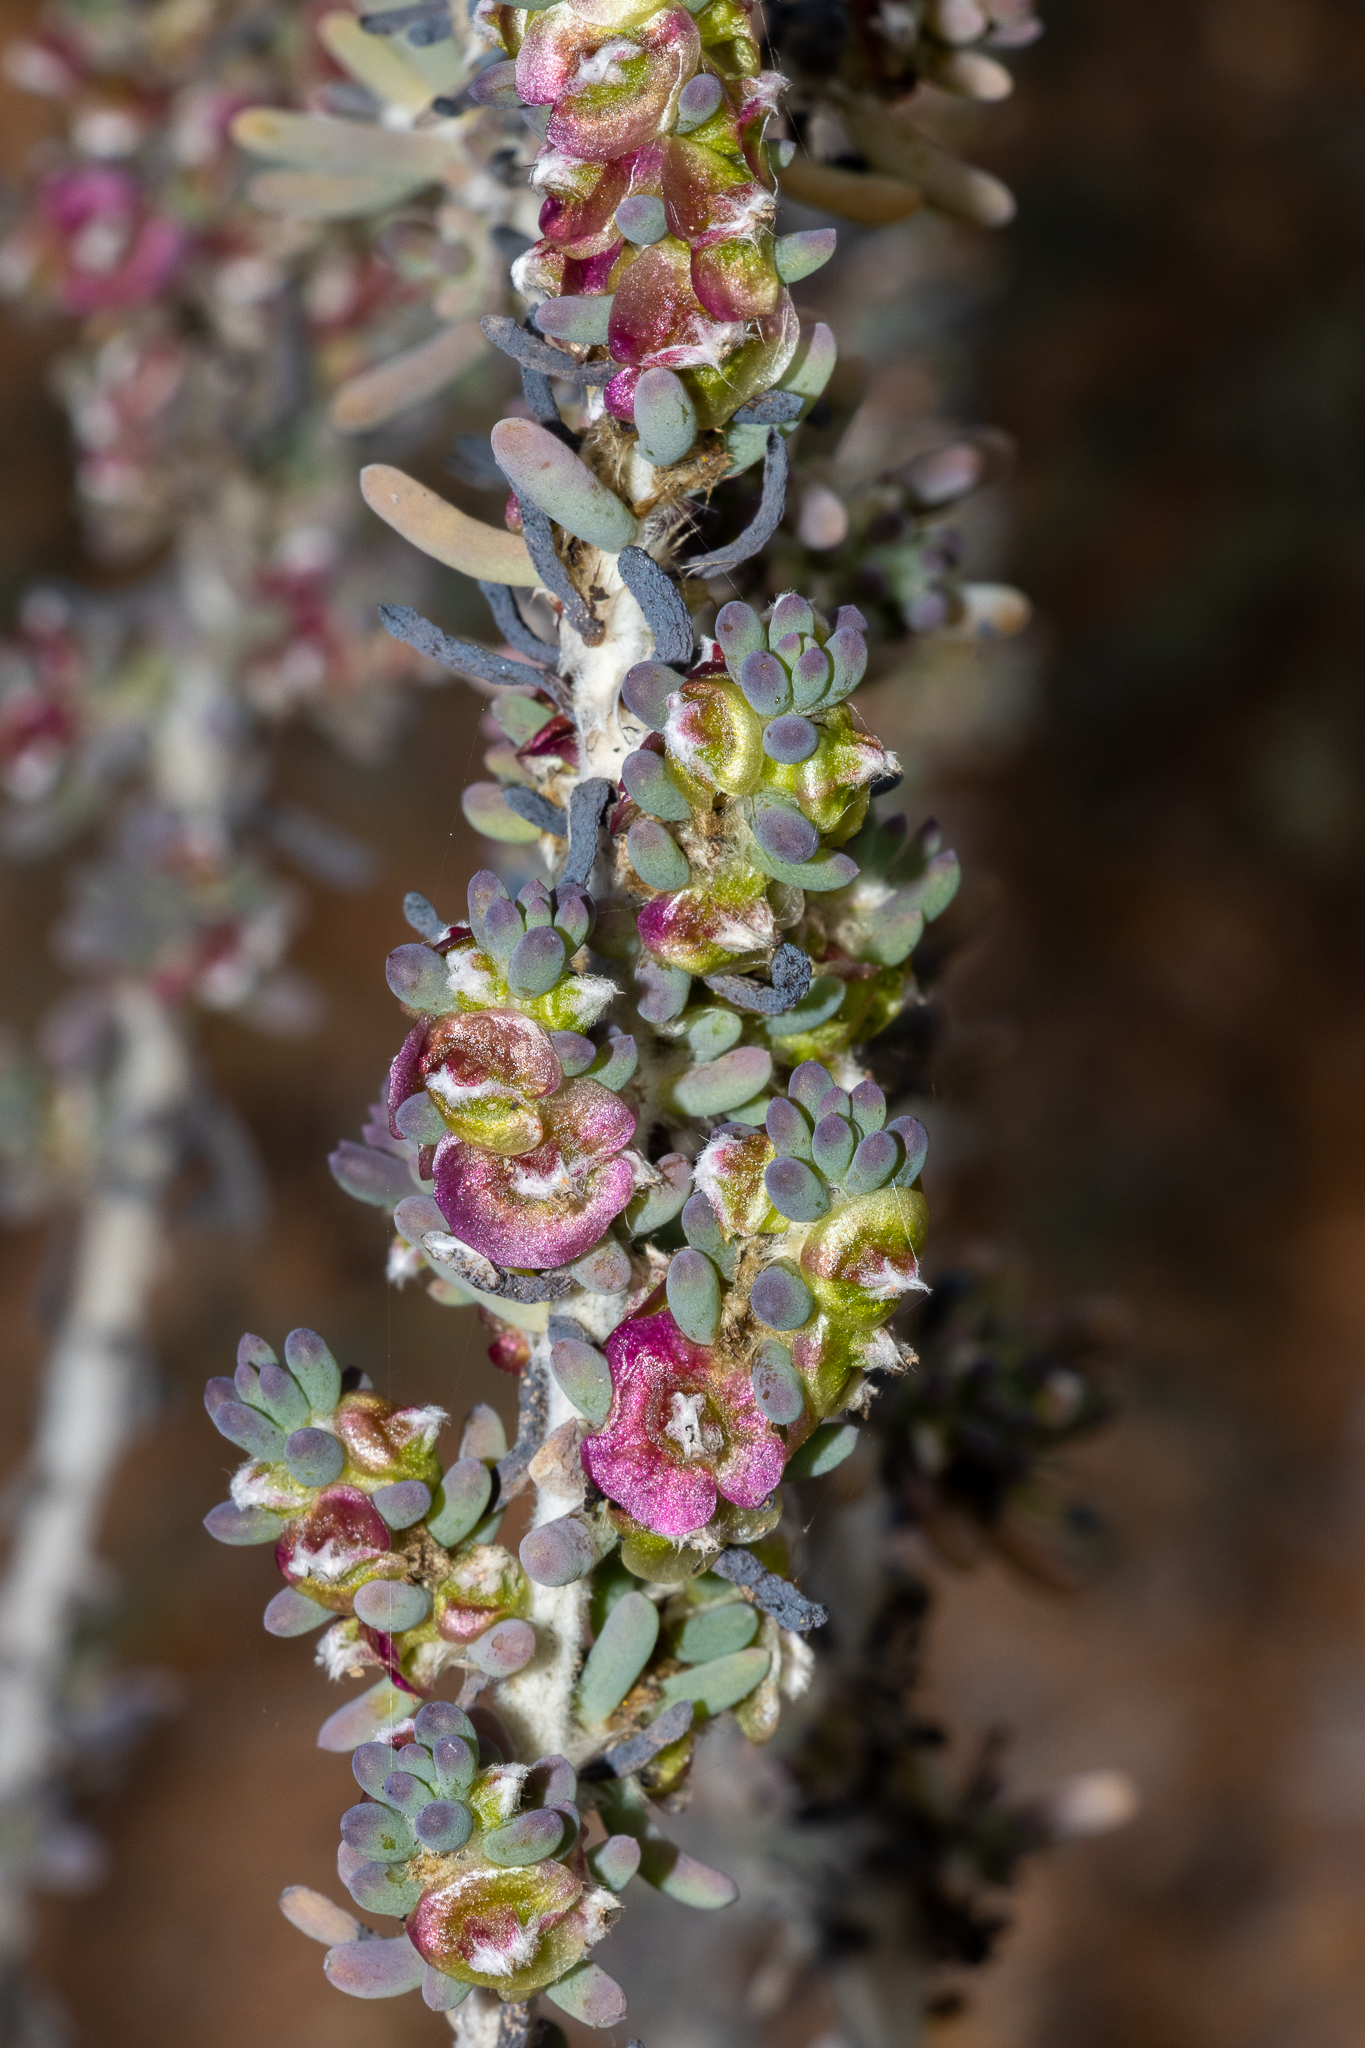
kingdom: Plantae
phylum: Tracheophyta
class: Magnoliopsida
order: Caryophyllales
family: Amaranthaceae
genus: Maireana
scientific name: Maireana pentatropis
